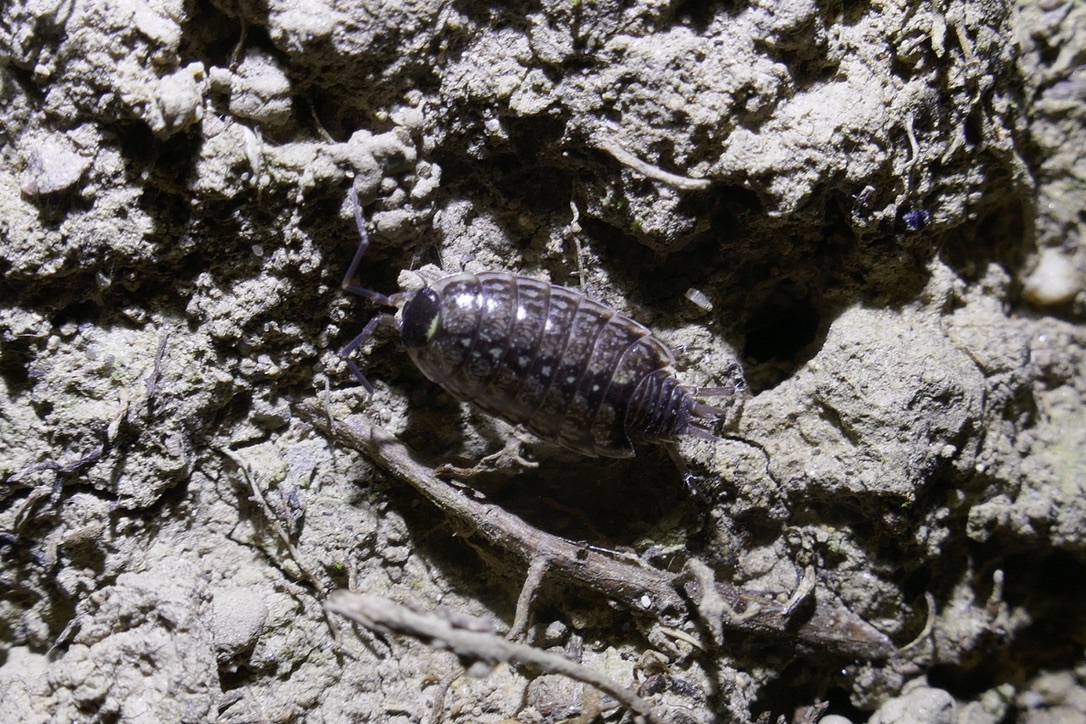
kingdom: Animalia
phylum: Arthropoda
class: Malacostraca
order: Isopoda
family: Philosciidae
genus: Philoscia
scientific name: Philoscia muscorum
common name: Common striped woodlouse
